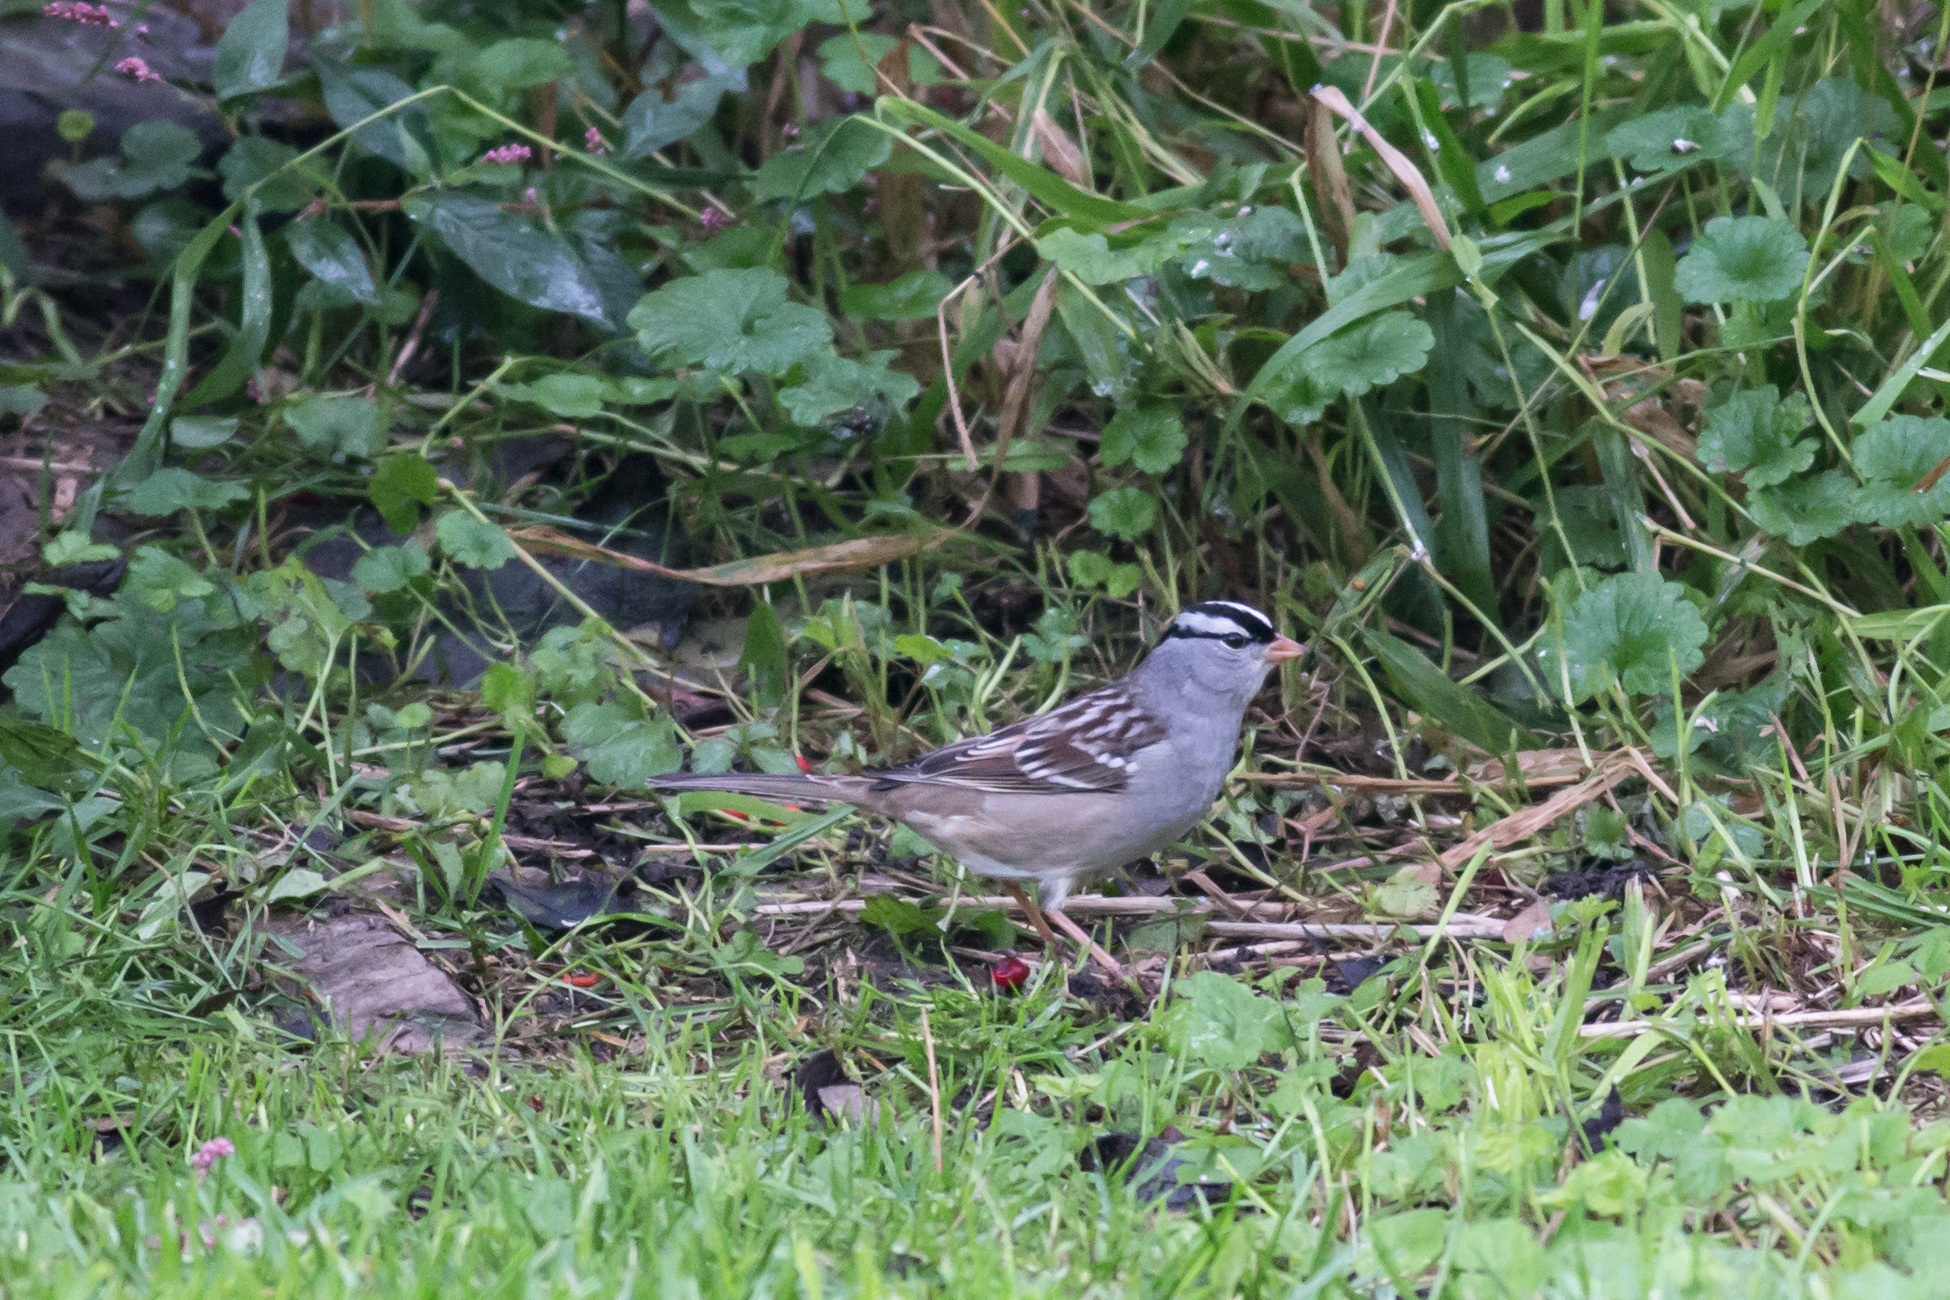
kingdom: Animalia
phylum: Chordata
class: Aves
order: Passeriformes
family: Passerellidae
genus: Zonotrichia
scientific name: Zonotrichia leucophrys
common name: White-crowned sparrow
